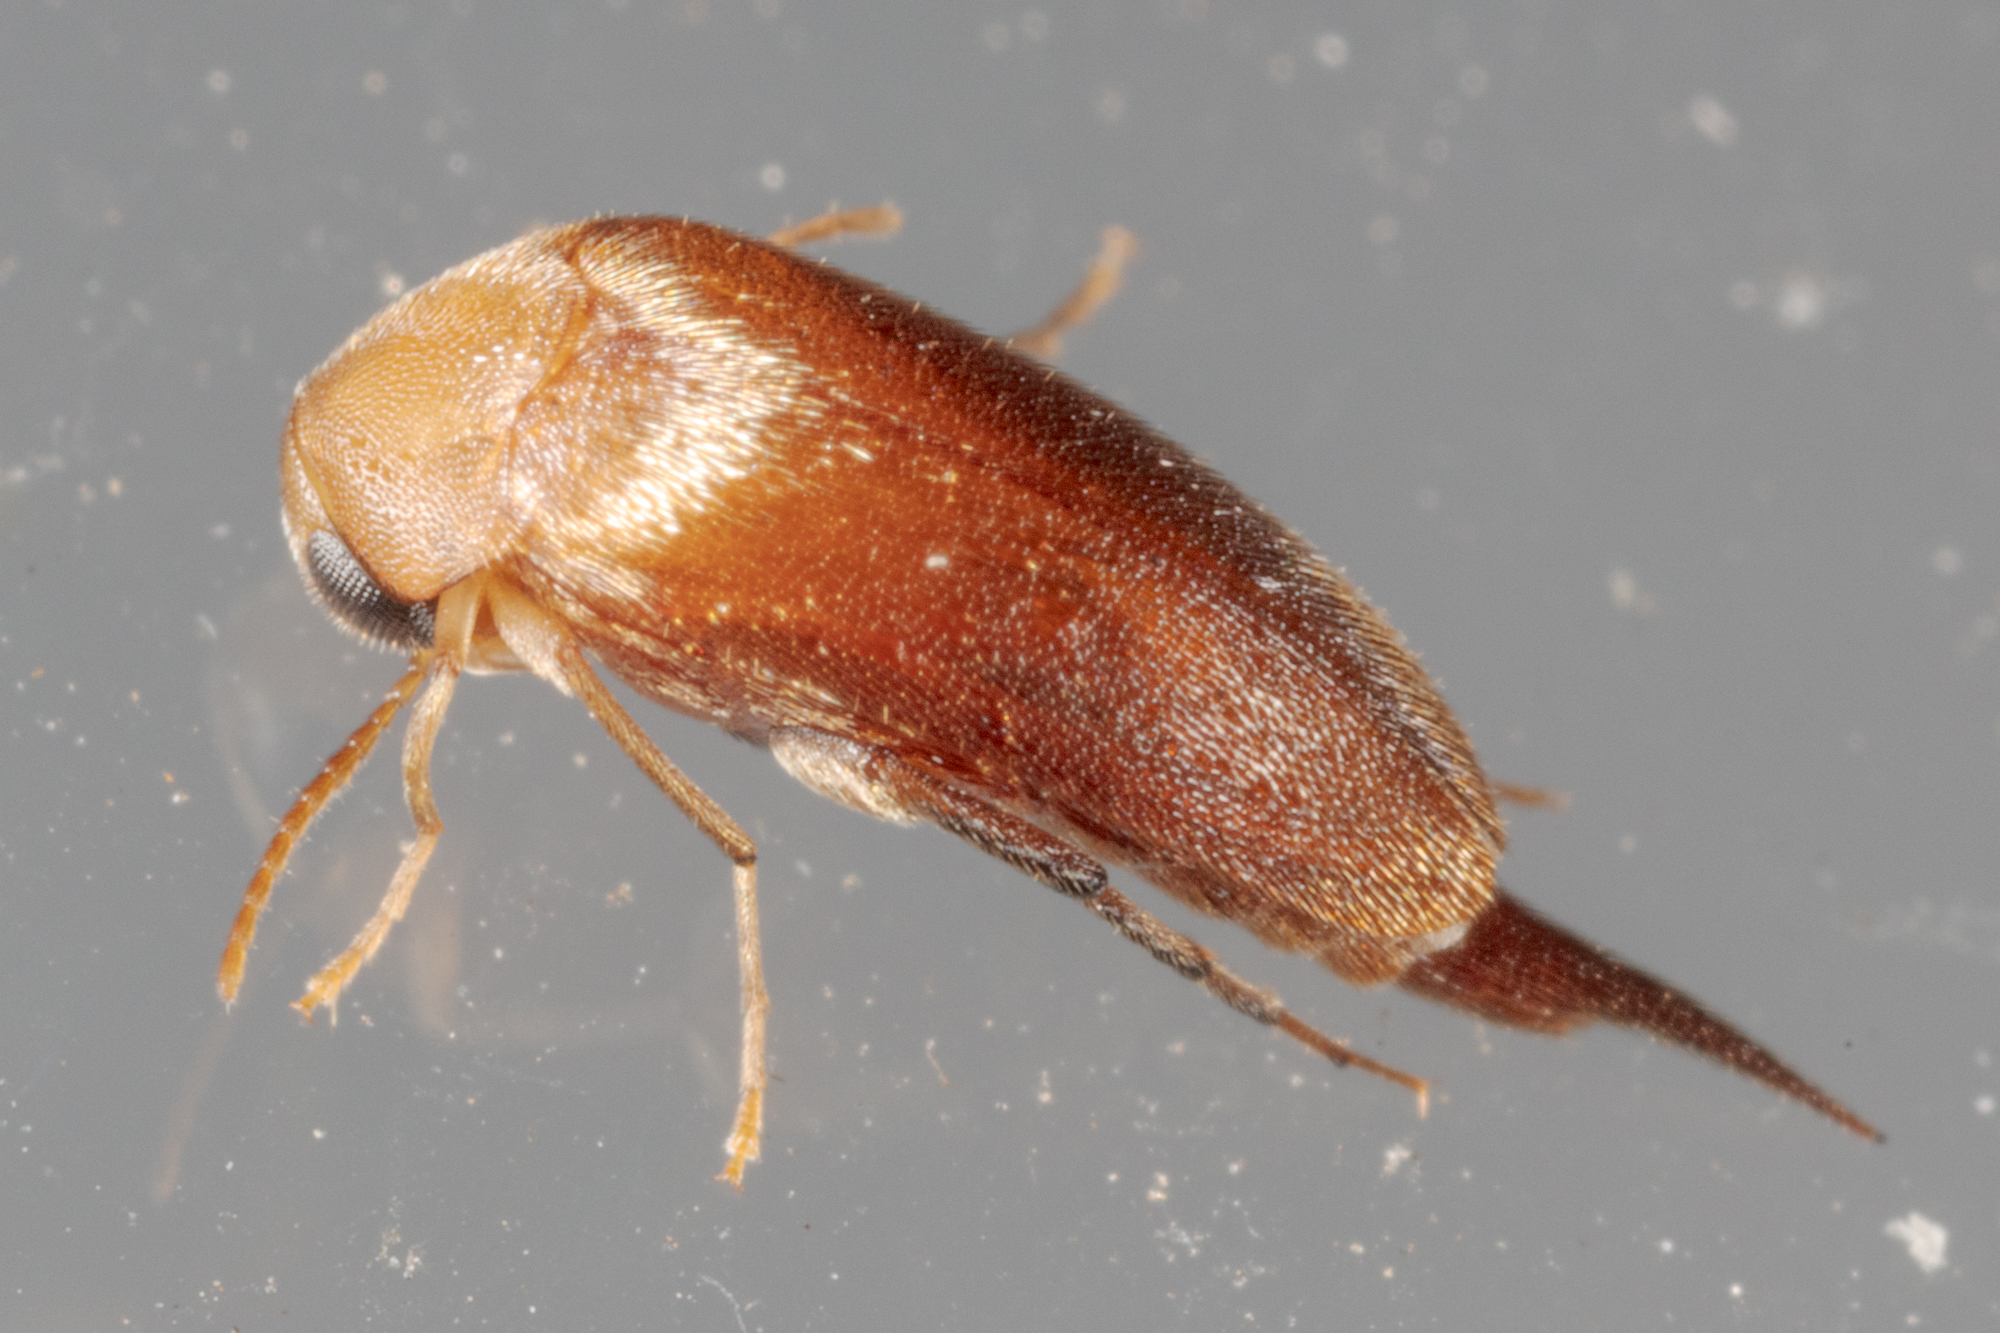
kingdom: Animalia
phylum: Arthropoda
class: Insecta
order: Coleoptera
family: Mordellidae
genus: Mordellina
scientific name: Mordellina testacea
